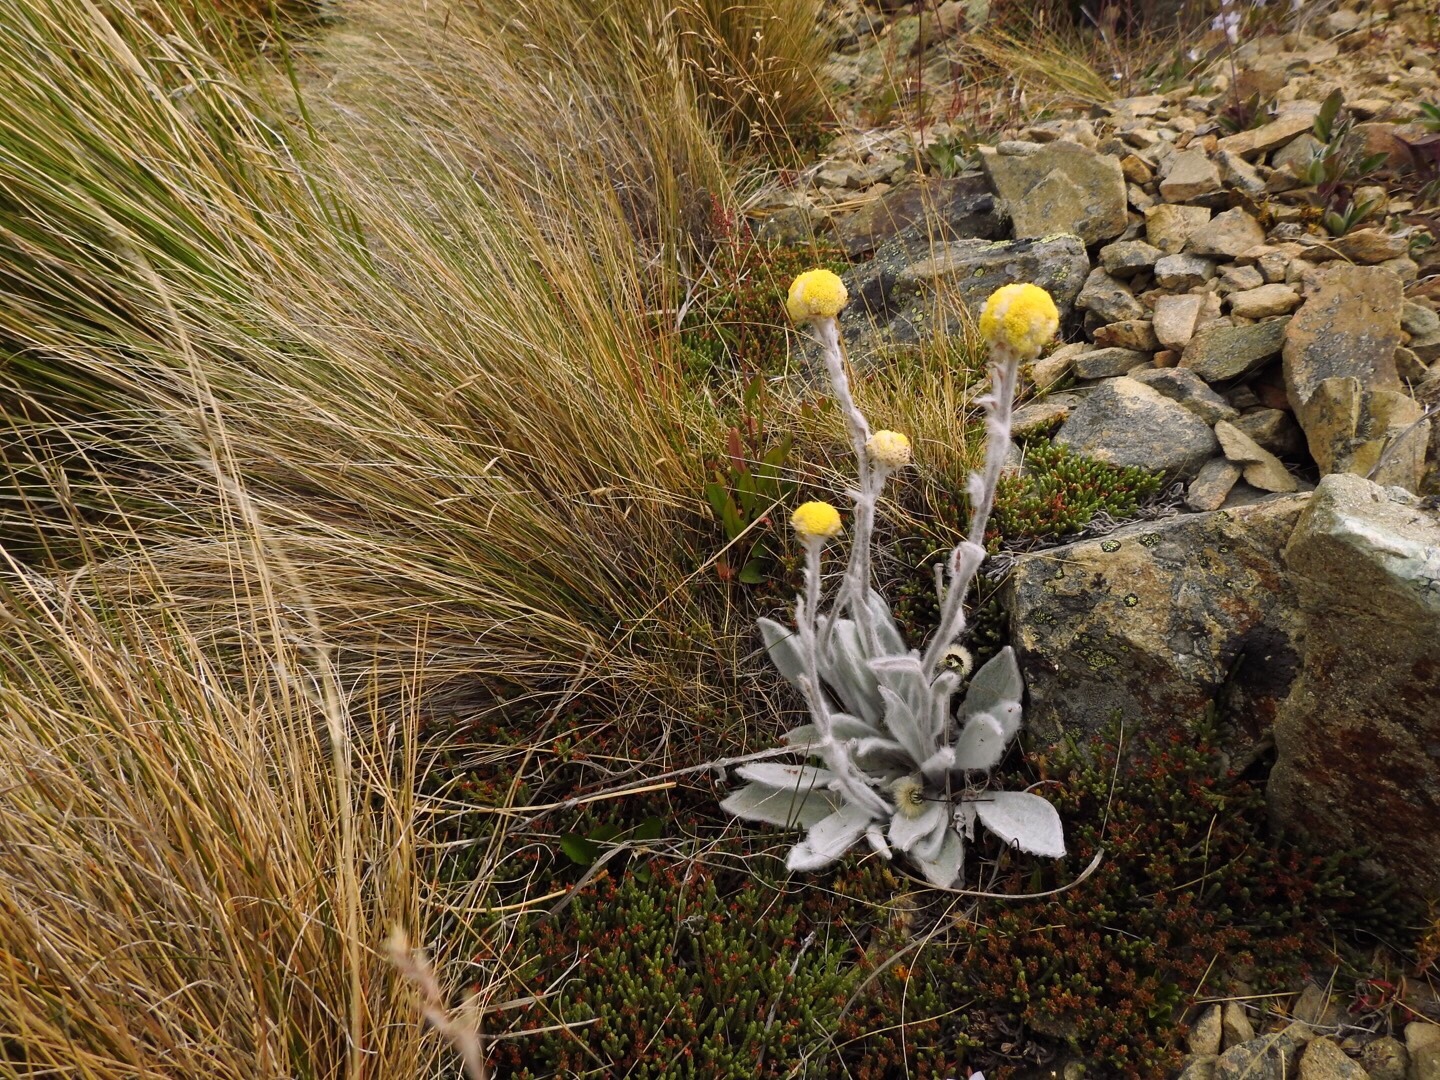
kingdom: Plantae
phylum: Tracheophyta
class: Magnoliopsida
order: Asterales
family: Asteraceae
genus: Craspedia
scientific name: Craspedia incana
